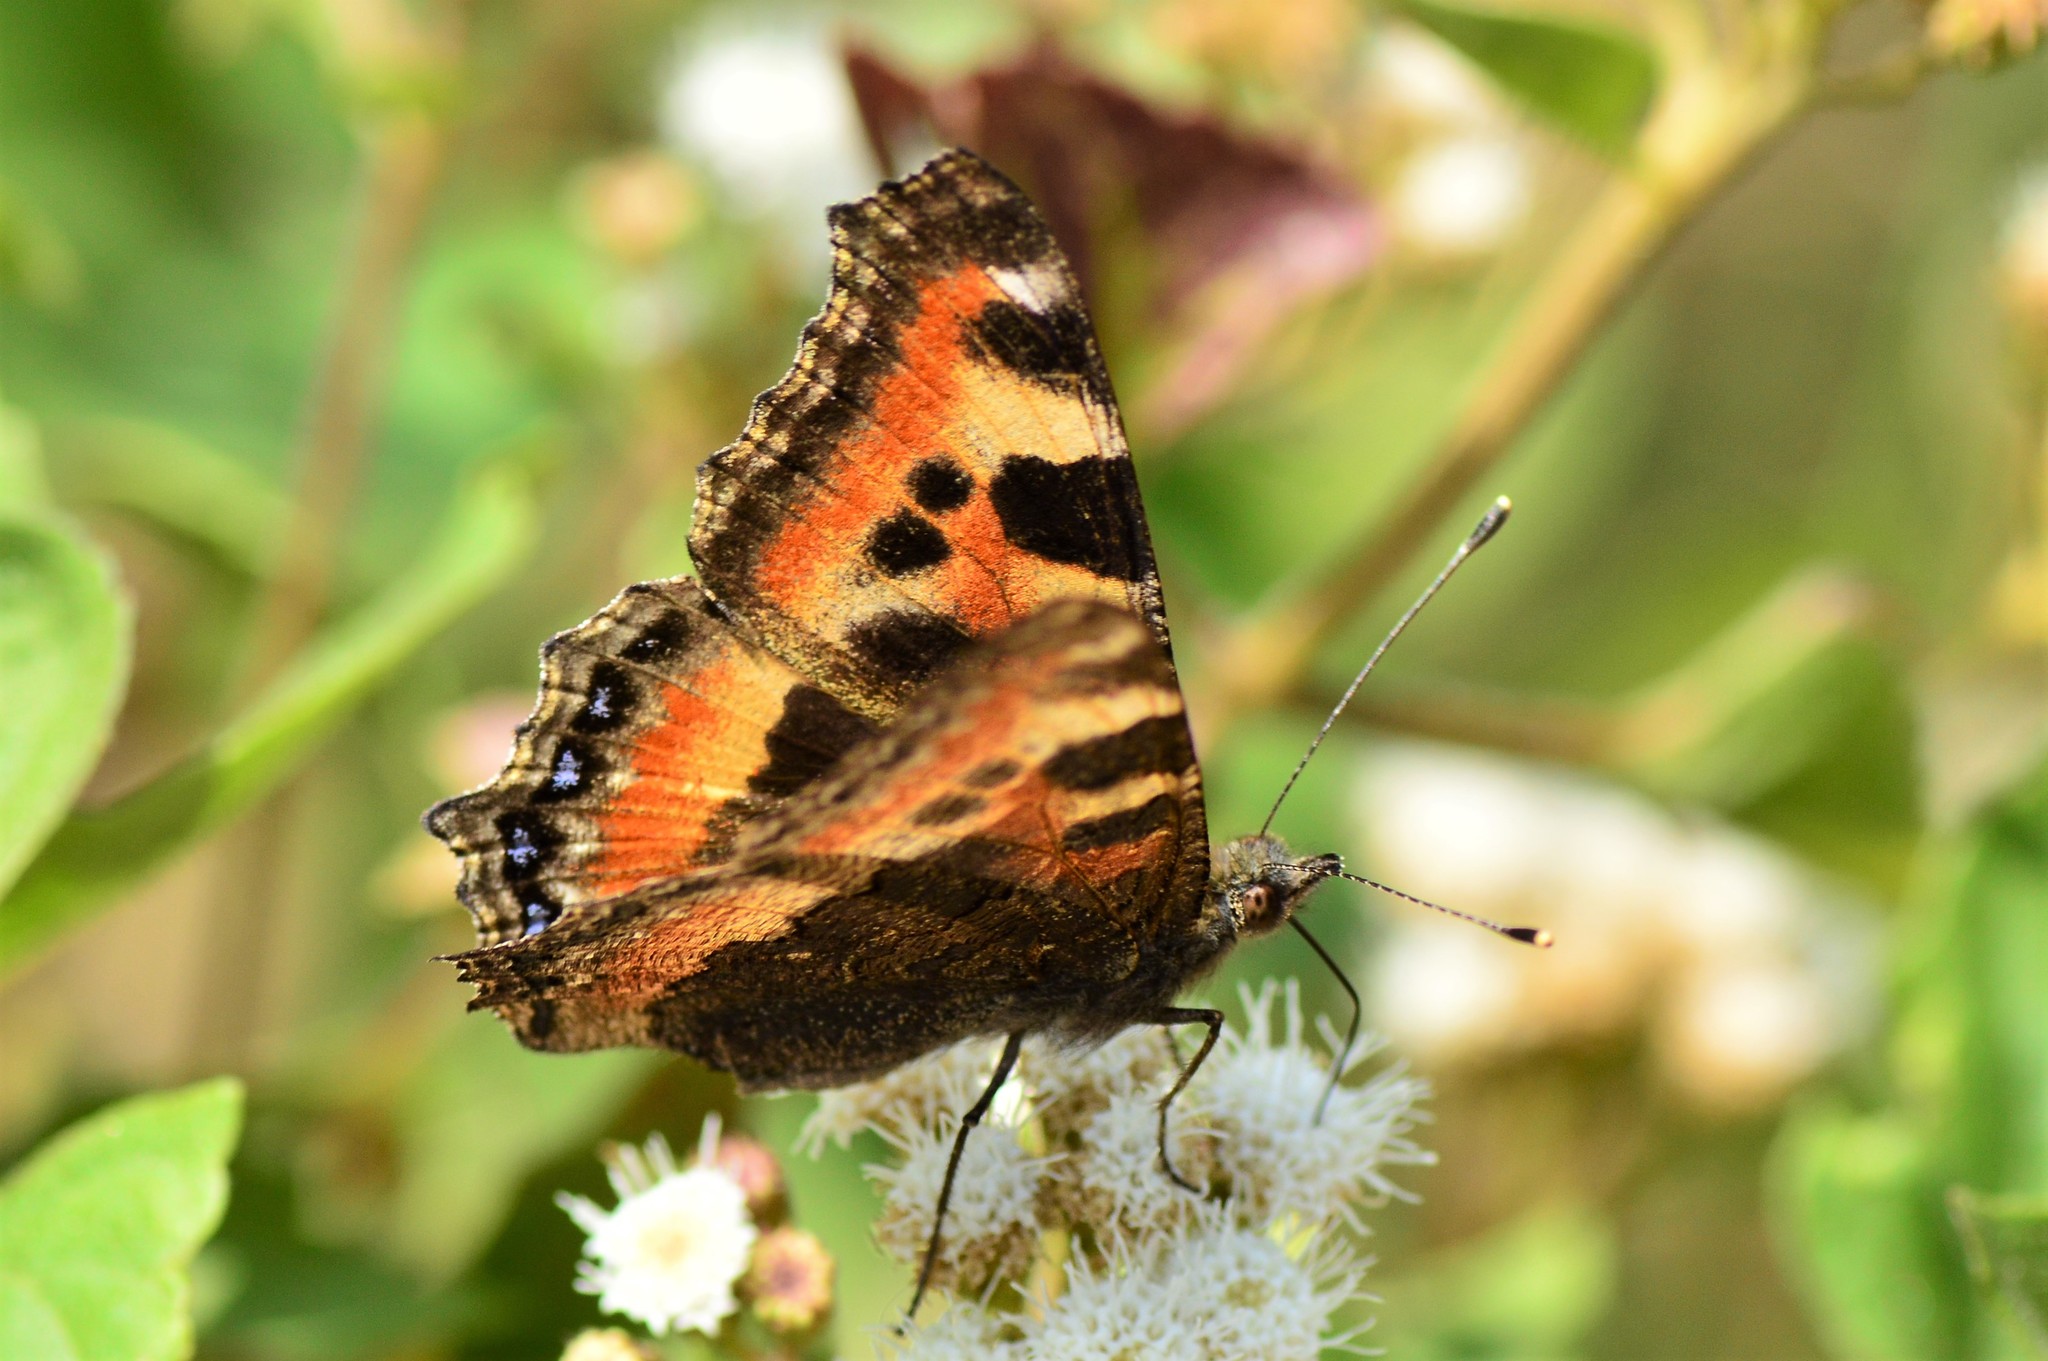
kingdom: Animalia
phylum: Arthropoda
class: Insecta
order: Lepidoptera
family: Nymphalidae
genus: Aglais
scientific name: Aglais caschmirensis
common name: Indian tortoiseshell
